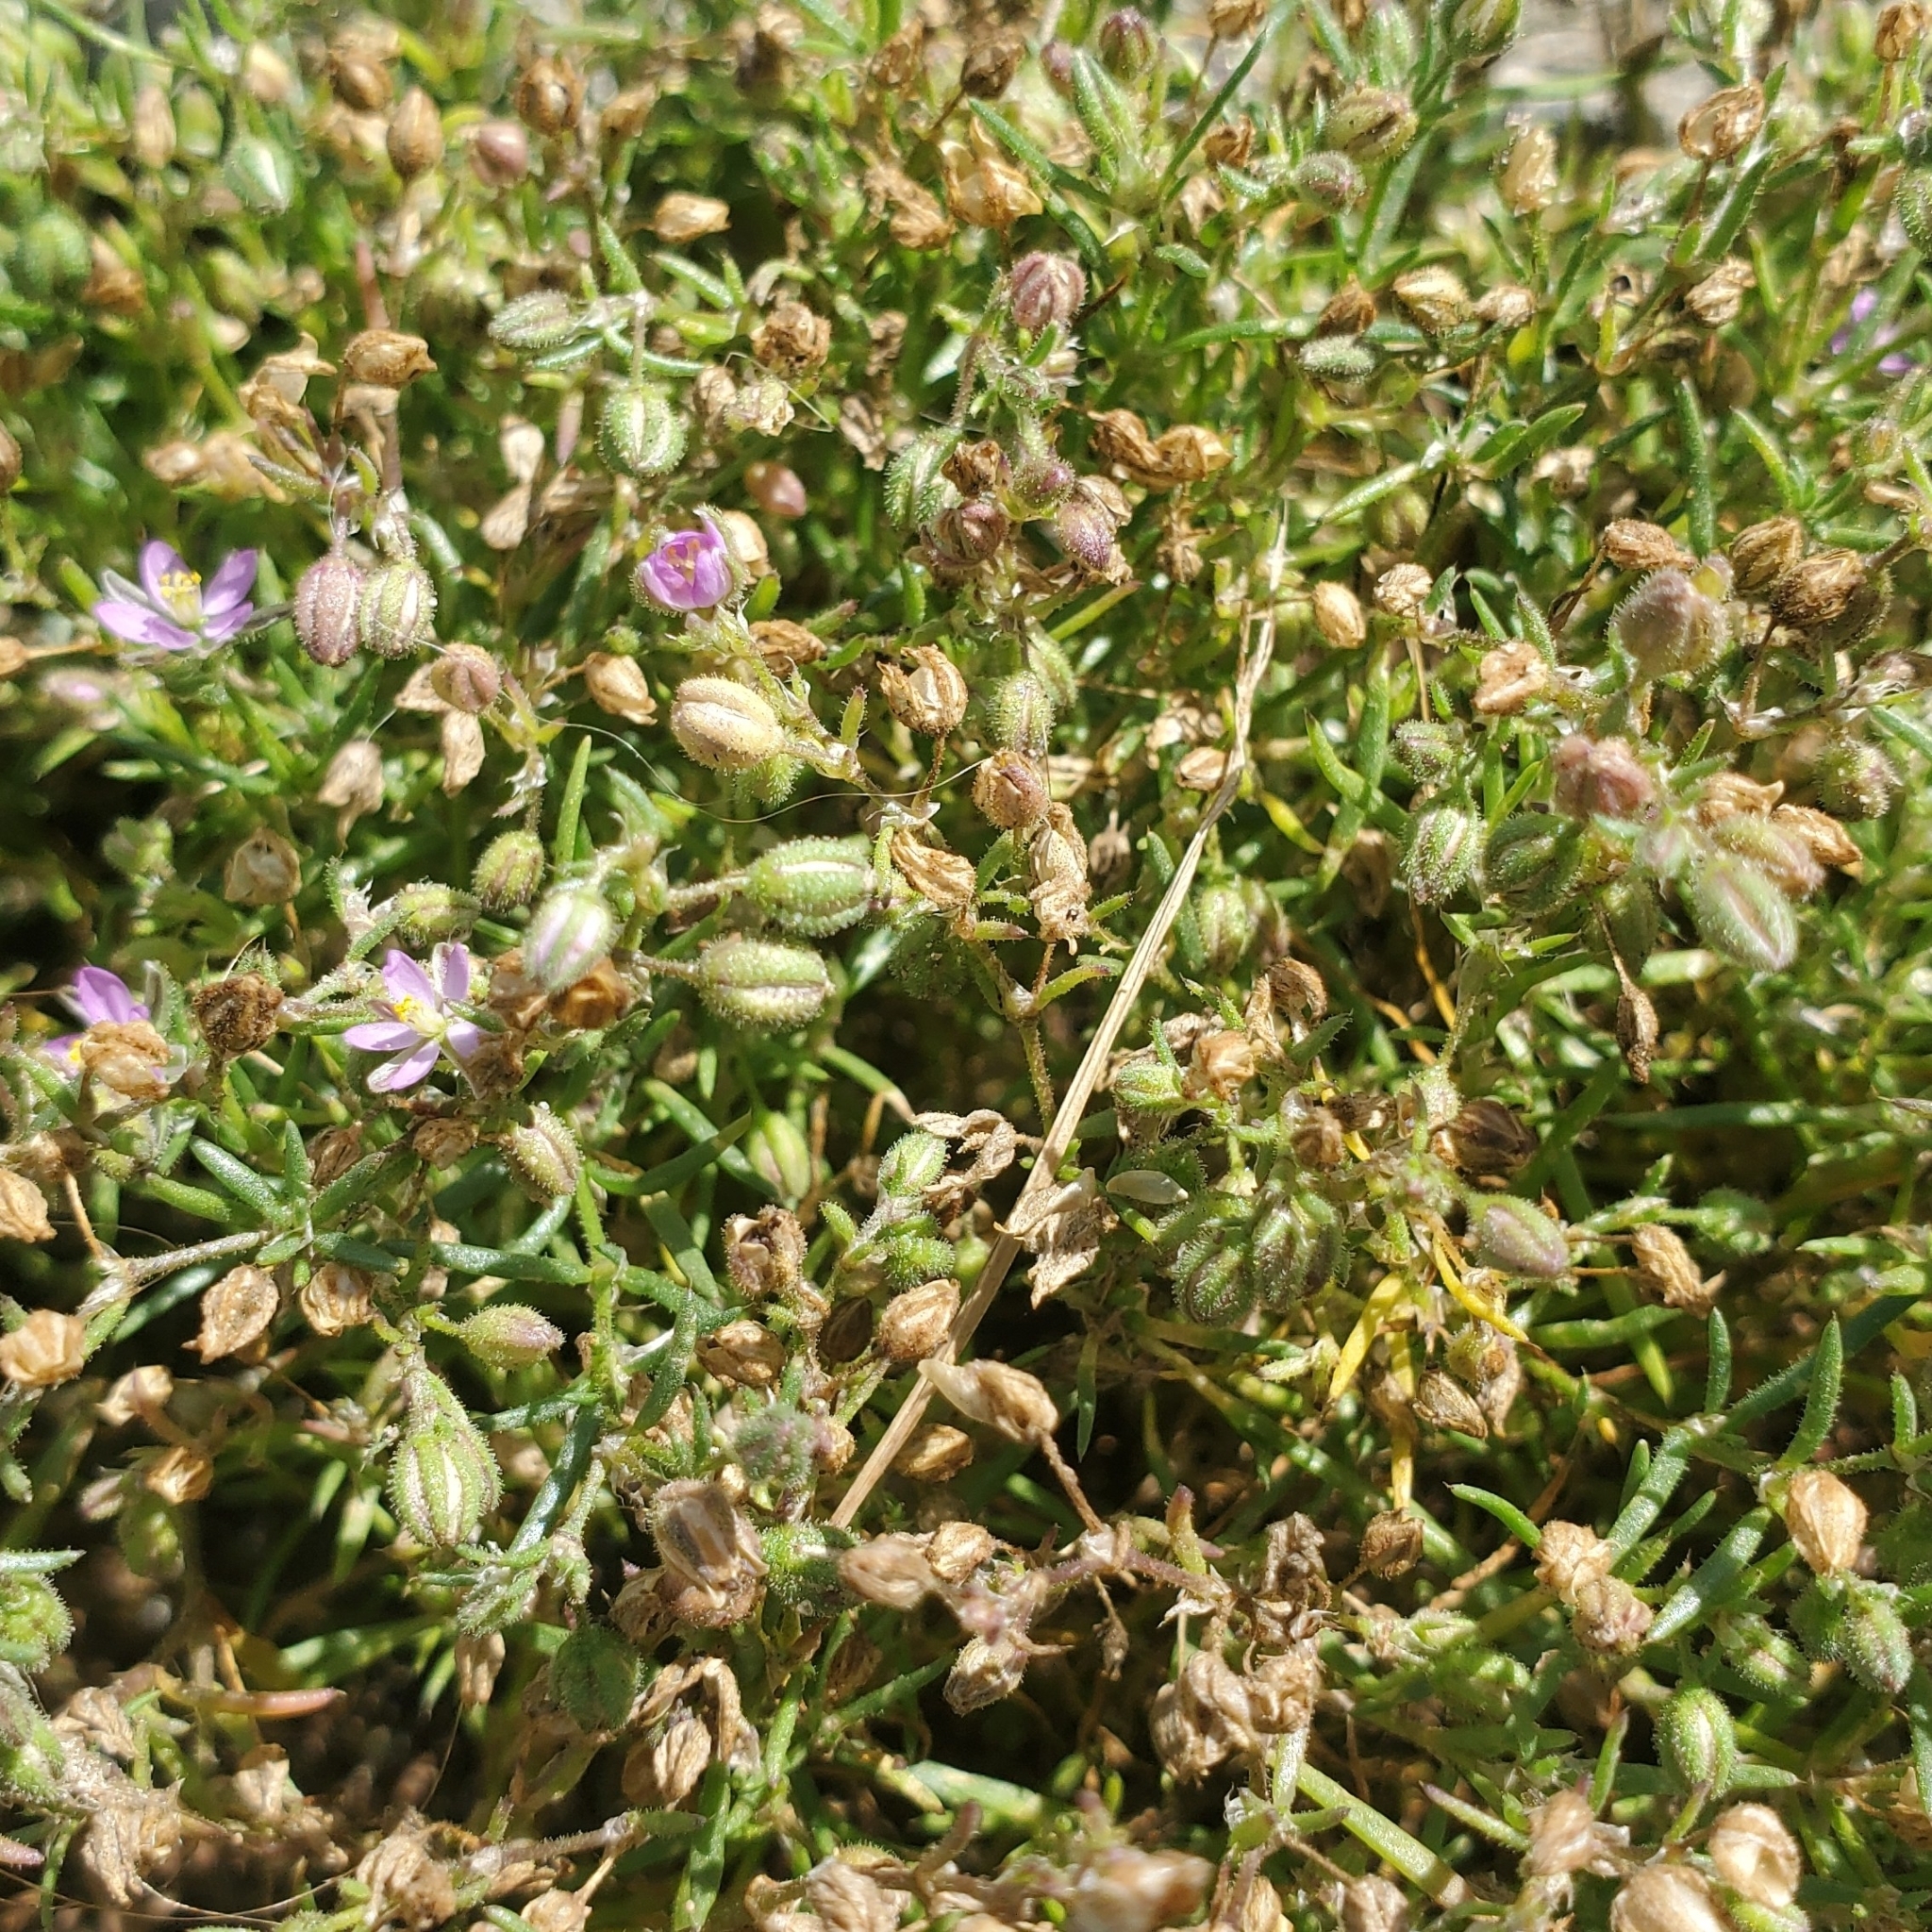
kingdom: Plantae
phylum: Tracheophyta
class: Magnoliopsida
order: Caryophyllales
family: Caryophyllaceae
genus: Spergularia
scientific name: Spergularia canadensis
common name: Canada sand-spurrey
